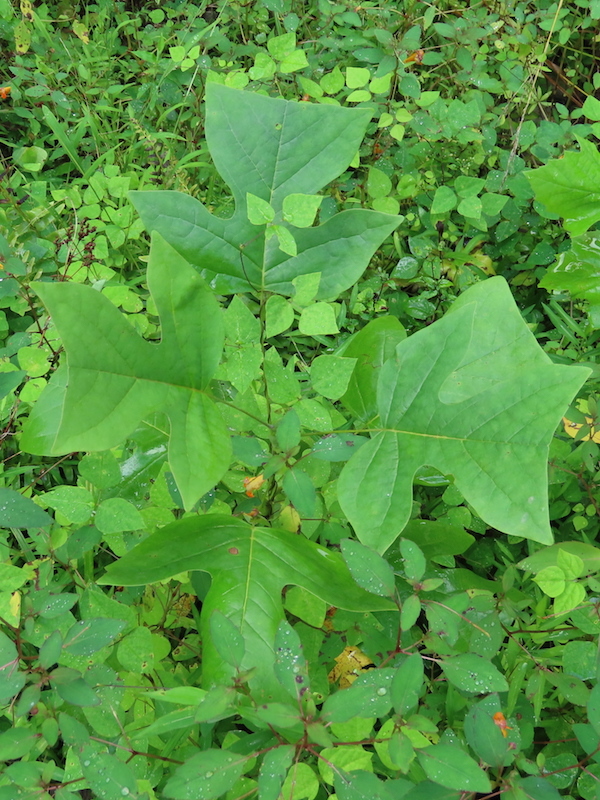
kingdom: Plantae
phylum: Tracheophyta
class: Magnoliopsida
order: Magnoliales
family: Magnoliaceae
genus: Liriodendron
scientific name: Liriodendron tulipifera
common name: Tulip tree
